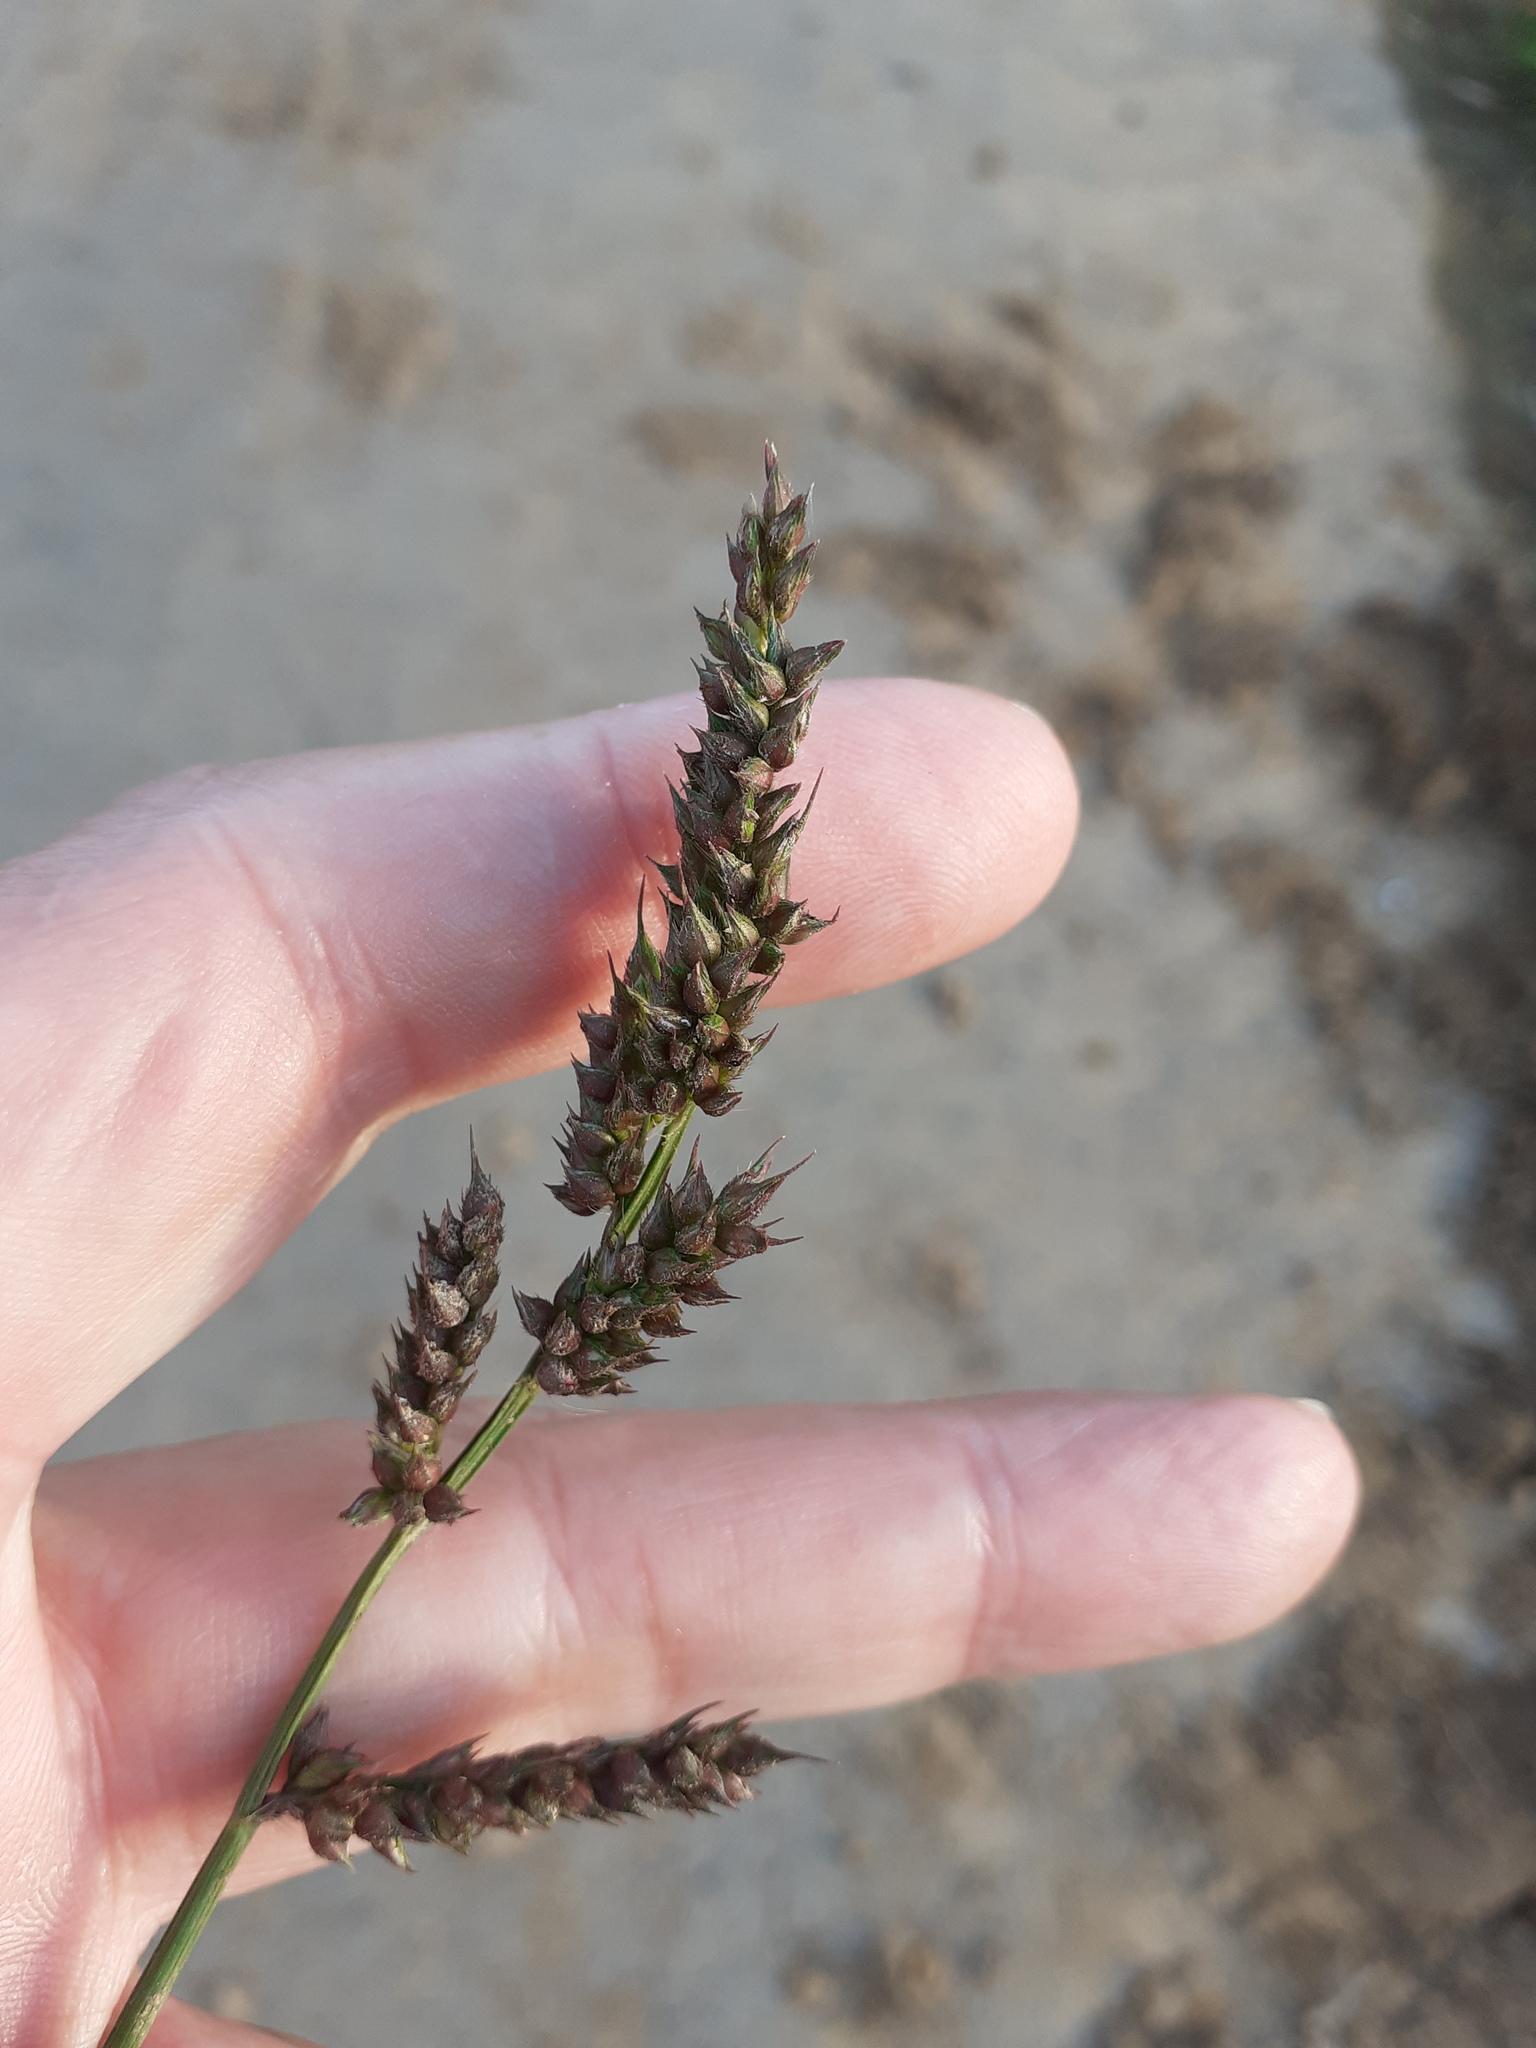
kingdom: Plantae
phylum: Tracheophyta
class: Liliopsida
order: Poales
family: Poaceae
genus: Echinochloa
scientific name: Echinochloa crus-galli
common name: Cockspur
